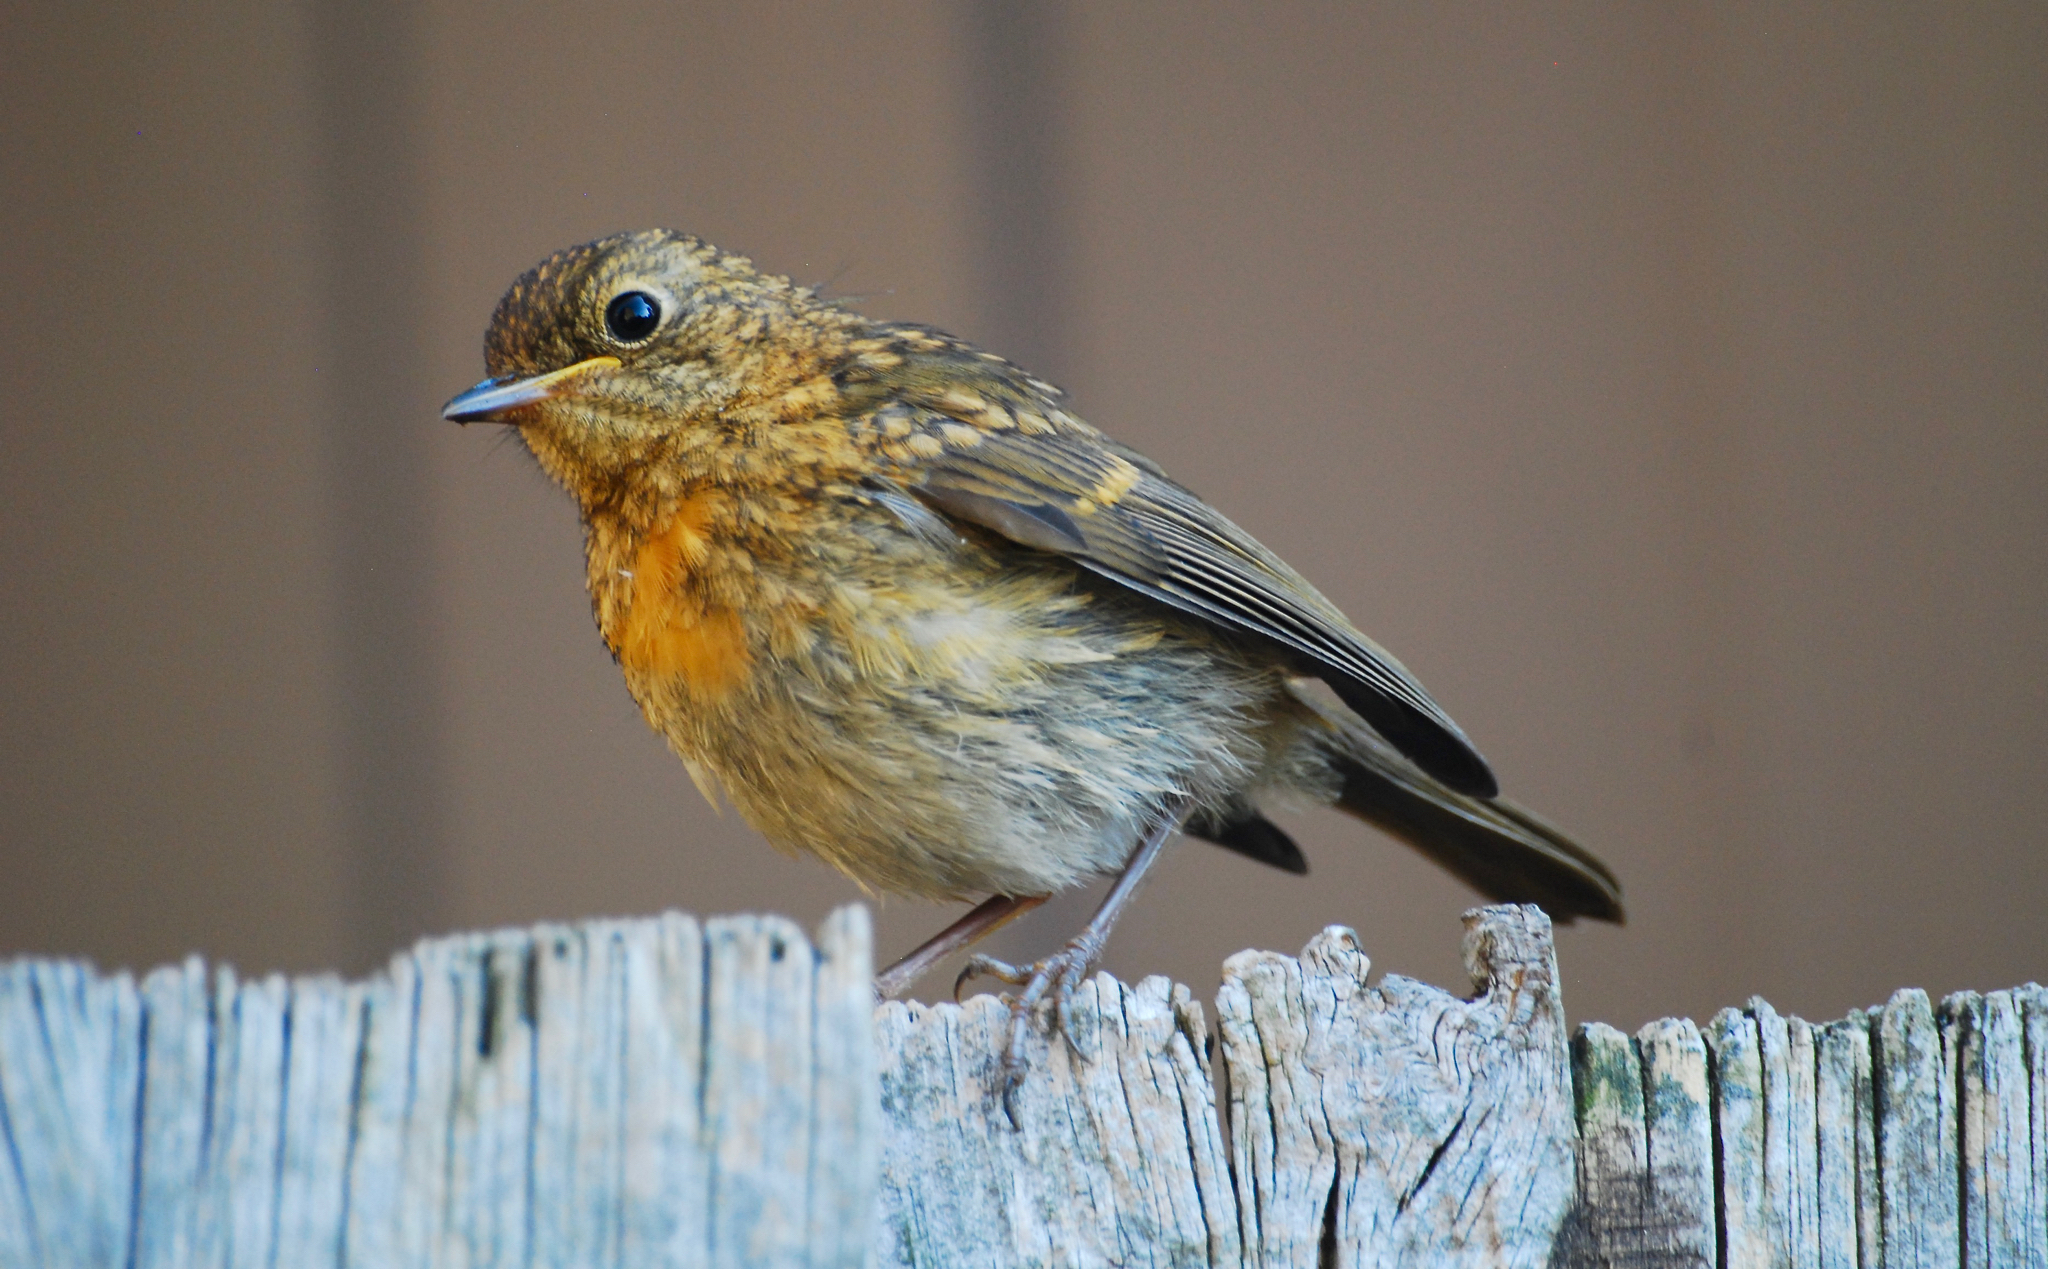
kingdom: Animalia
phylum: Chordata
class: Aves
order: Passeriformes
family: Muscicapidae
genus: Erithacus
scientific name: Erithacus rubecula
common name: European robin
